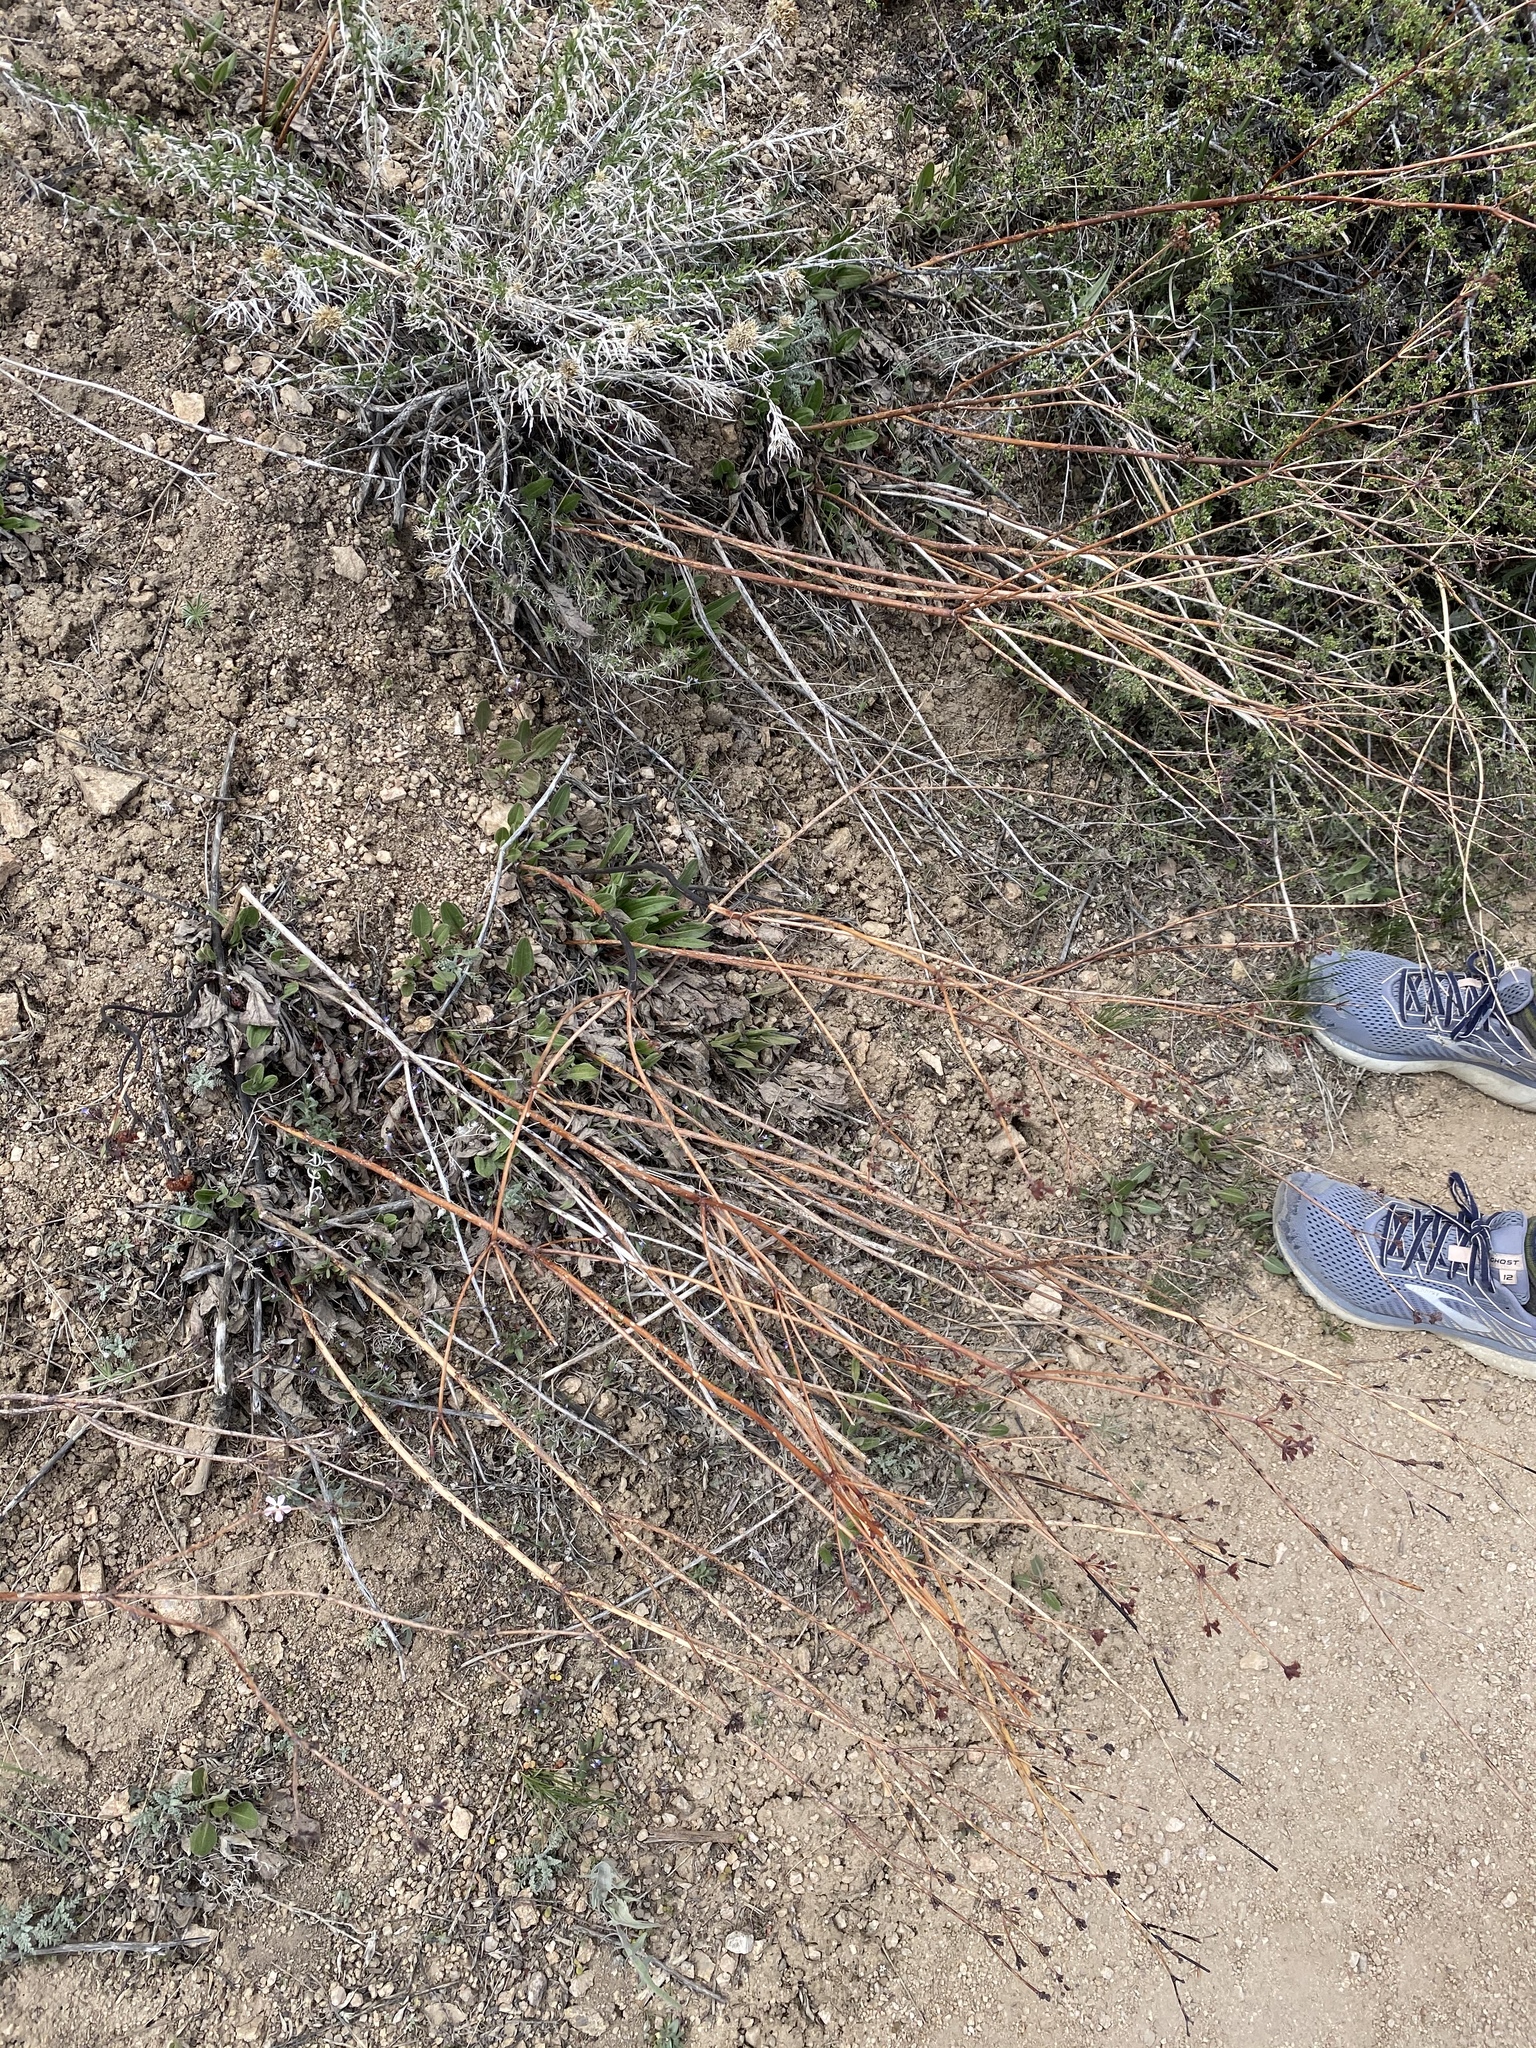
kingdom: Plantae
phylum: Tracheophyta
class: Magnoliopsida
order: Caryophyllales
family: Polygonaceae
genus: Eriogonum
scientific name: Eriogonum elatum
